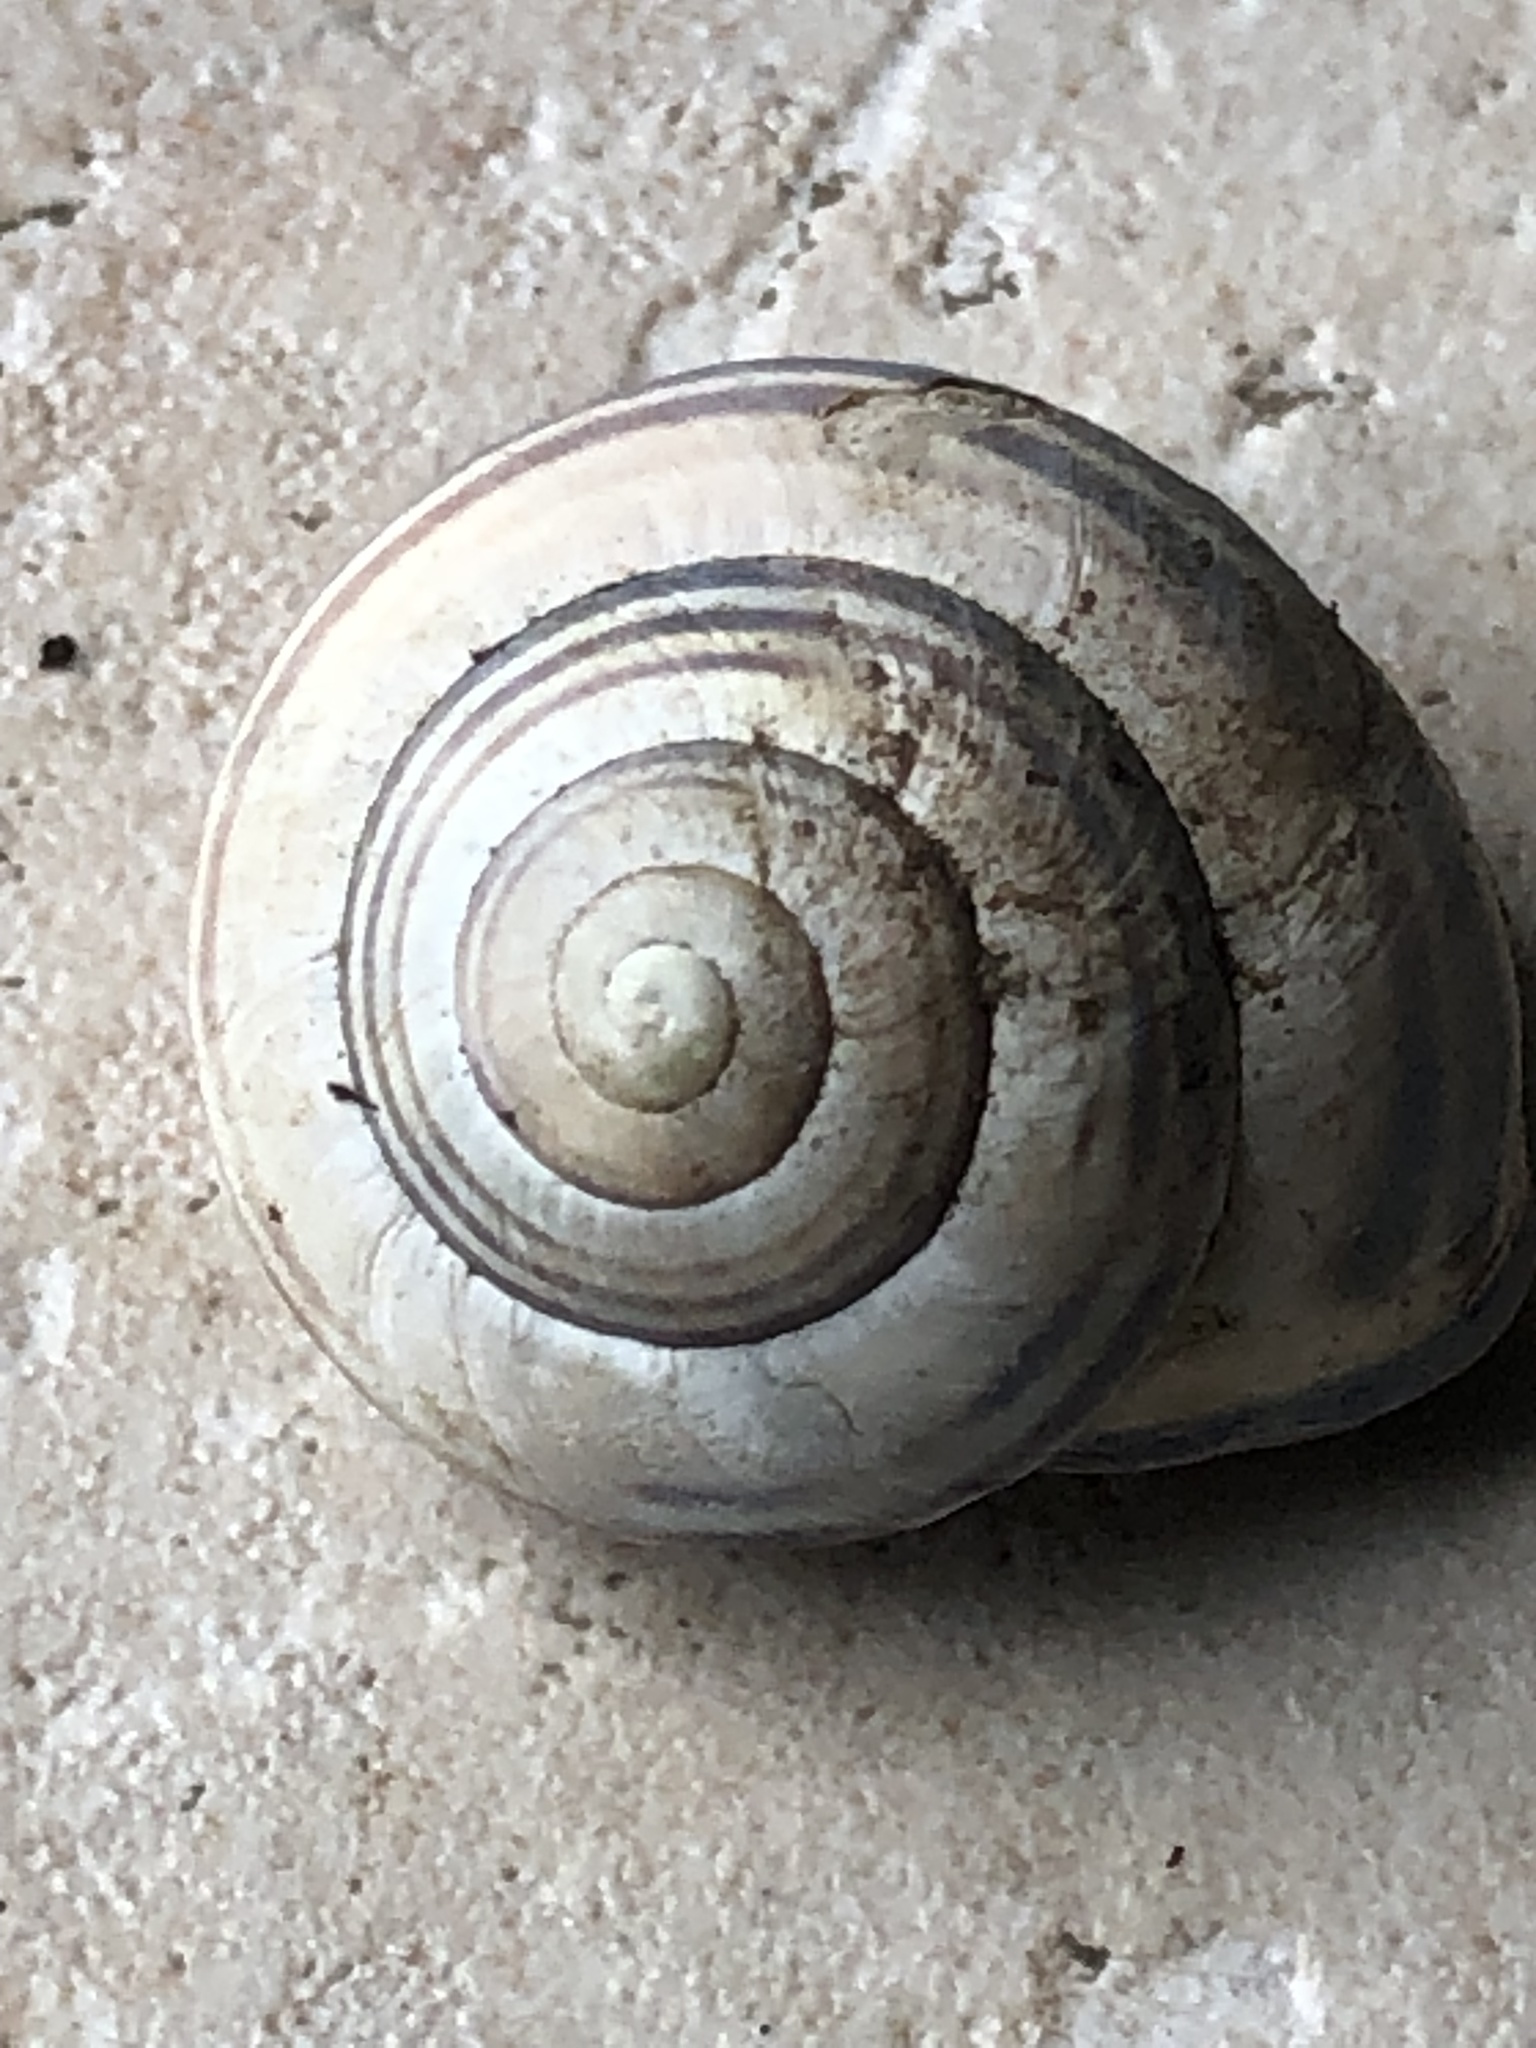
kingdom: Animalia
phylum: Mollusca
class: Gastropoda
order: Stylommatophora
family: Helicidae
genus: Cepaea
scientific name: Cepaea nemoralis
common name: Grovesnail
